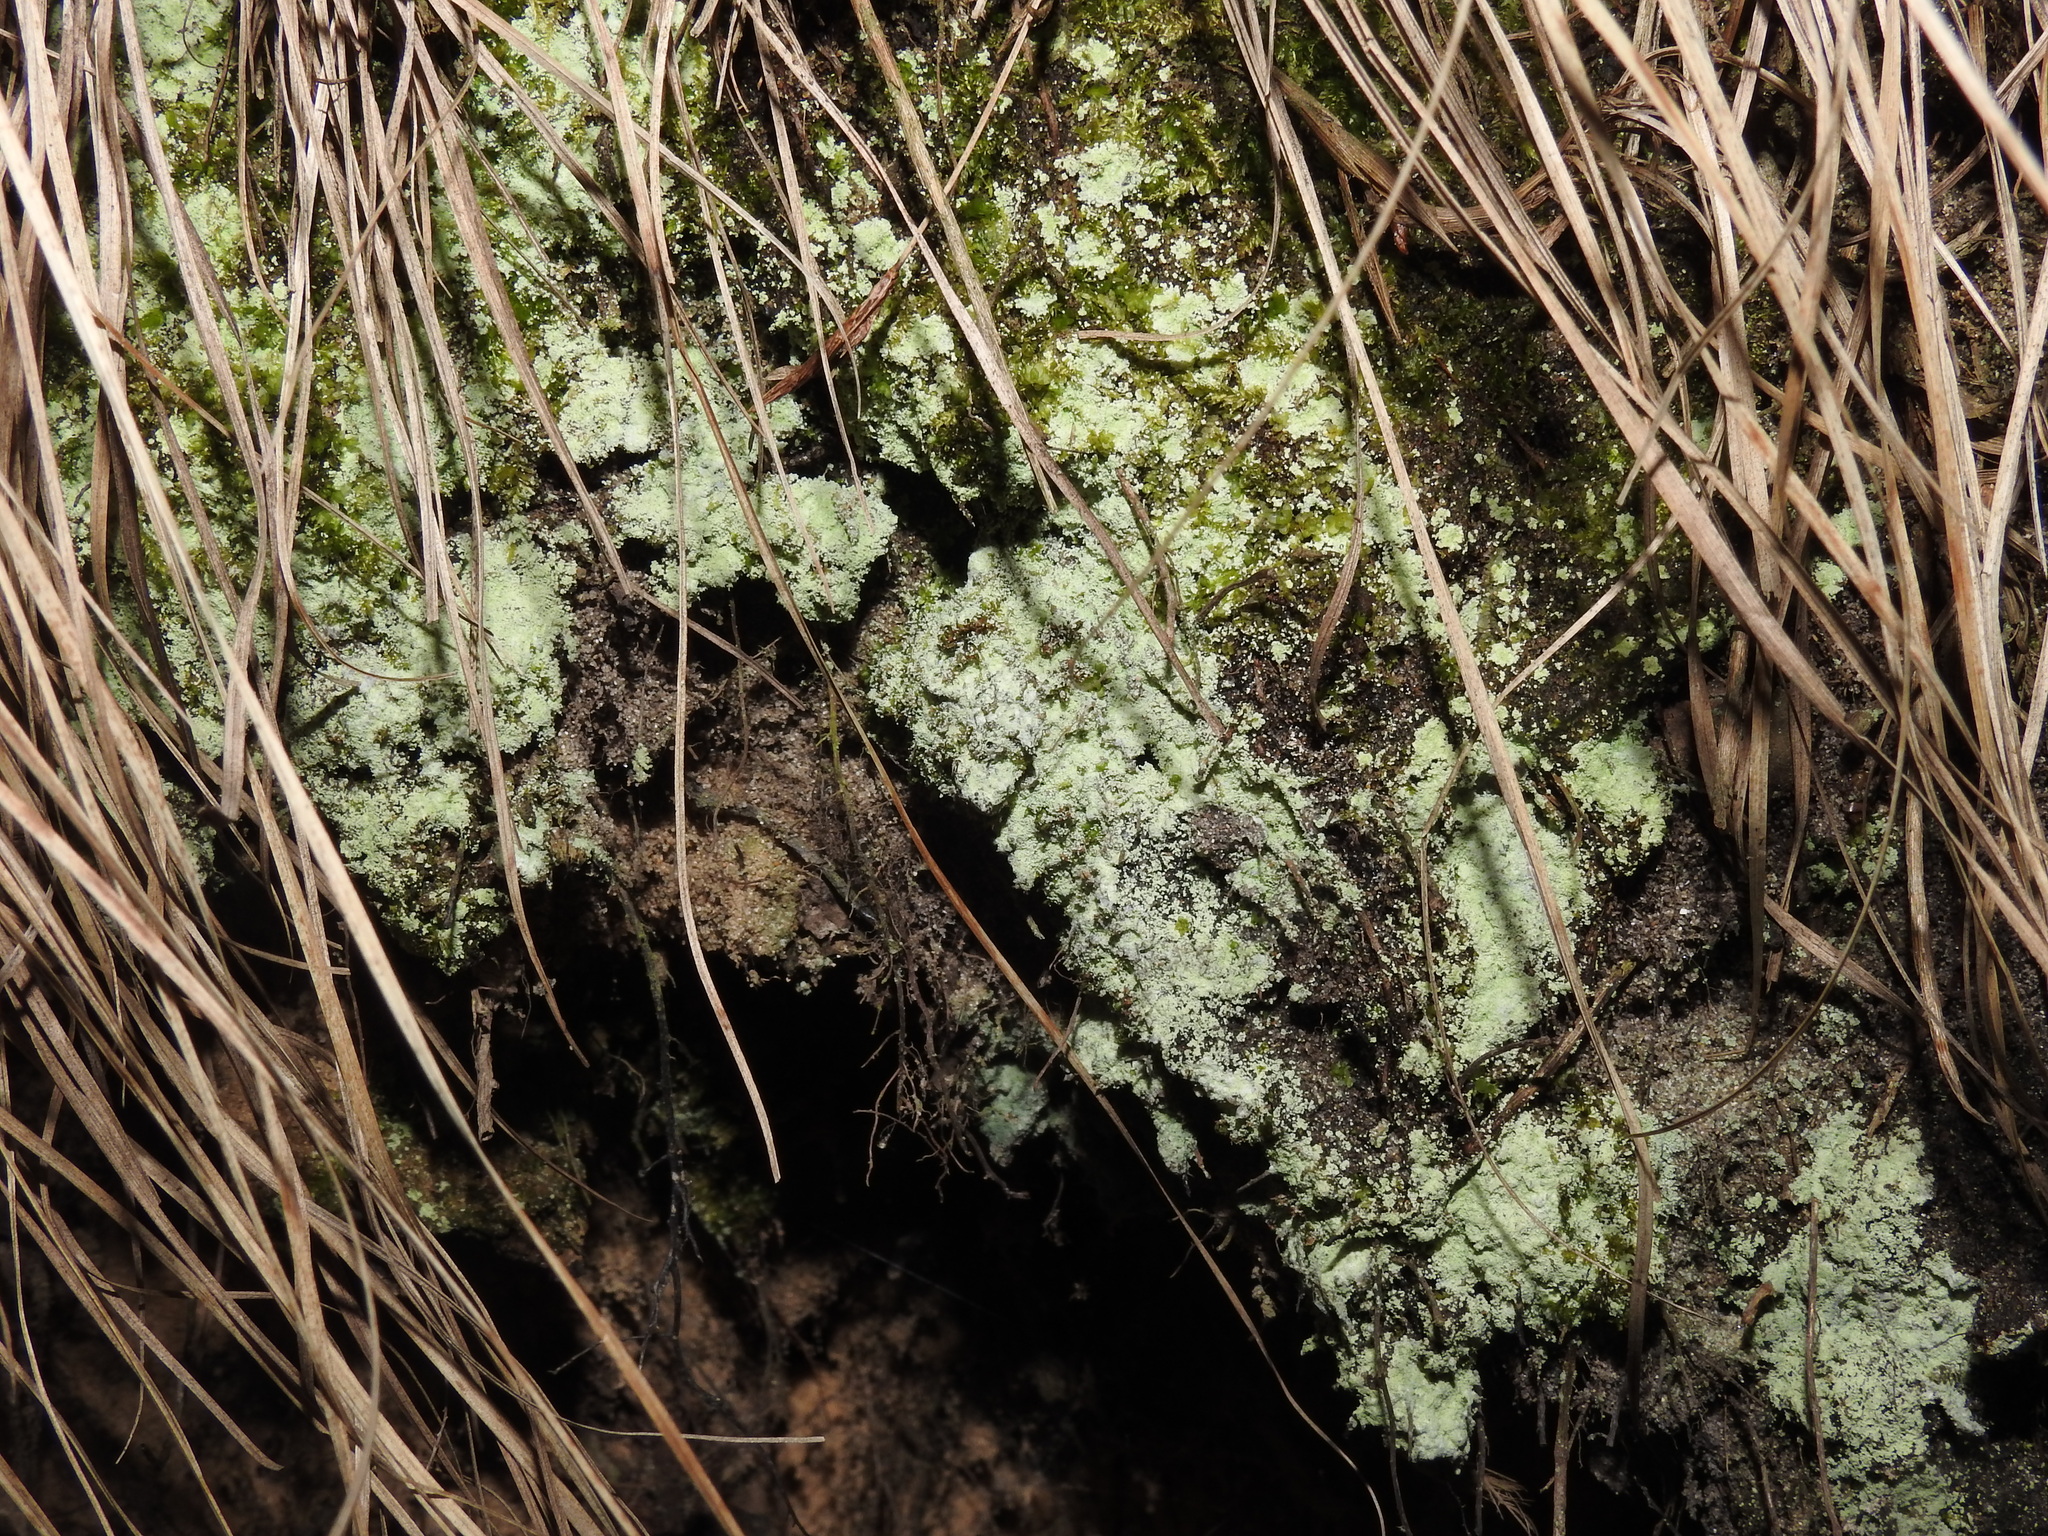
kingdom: Fungi
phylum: Ascomycota
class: Lecanoromycetes
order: Lecanorales
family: Stereocaulaceae
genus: Lepraria
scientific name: Lepraria lobificans
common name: Fluffy dust lichen
